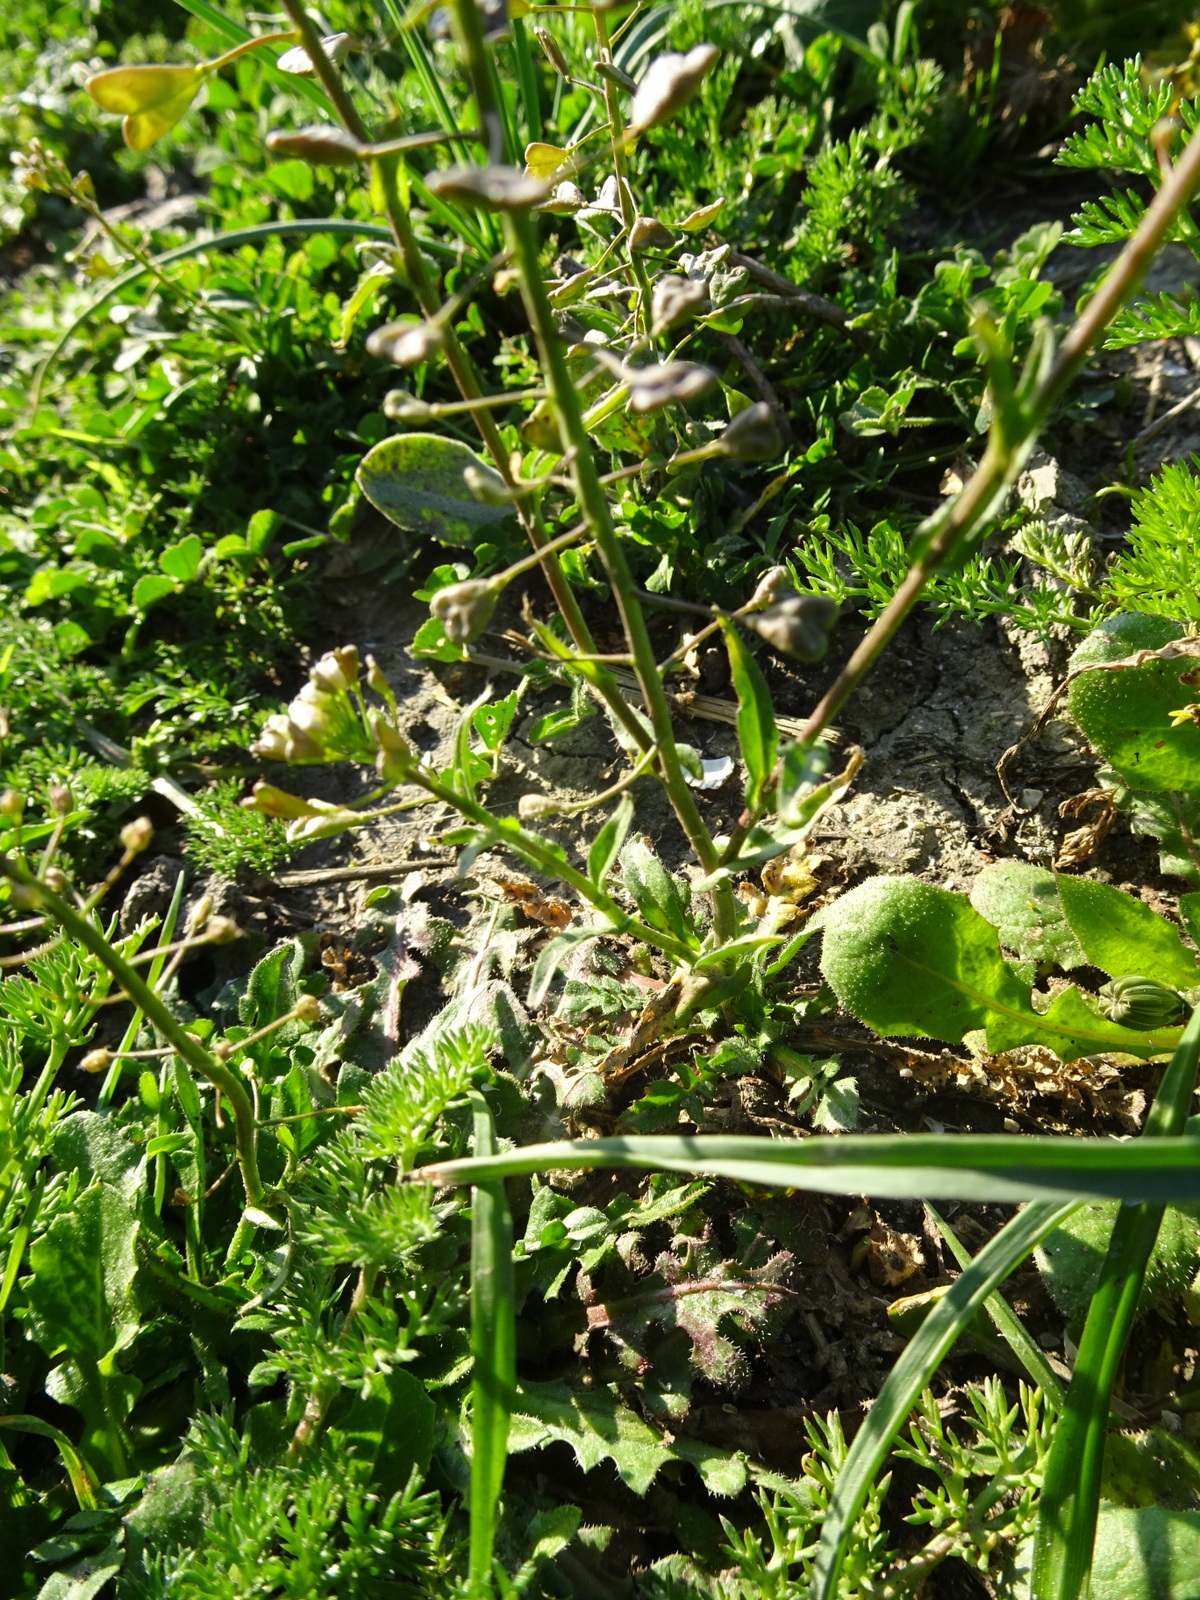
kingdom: Plantae
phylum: Tracheophyta
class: Magnoliopsida
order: Brassicales
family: Brassicaceae
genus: Capsella
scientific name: Capsella bursa-pastoris
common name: Shepherd's purse
